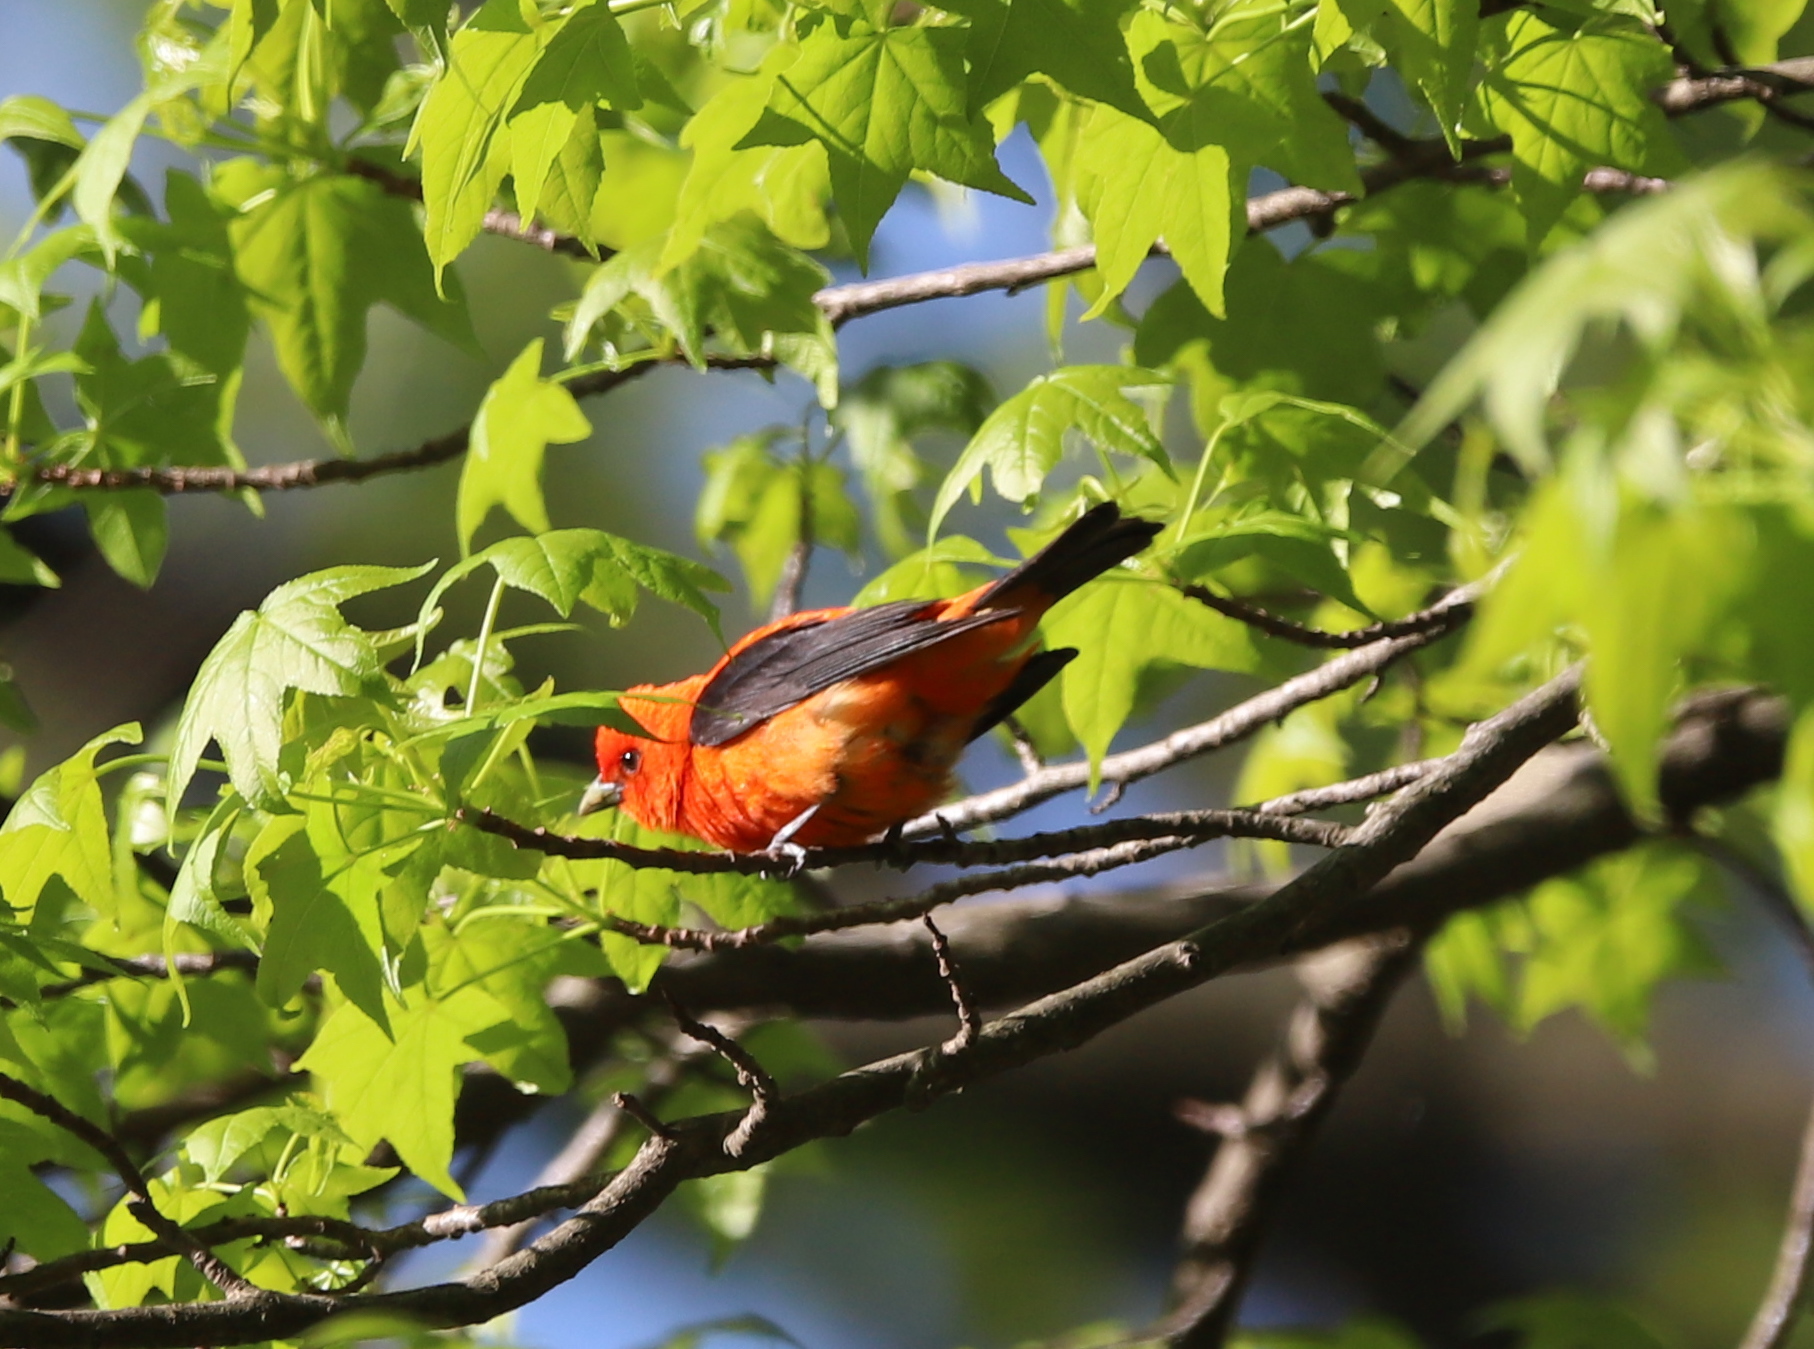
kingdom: Animalia
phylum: Chordata
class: Aves
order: Passeriformes
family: Cardinalidae
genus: Piranga
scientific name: Piranga olivacea
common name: Scarlet tanager
